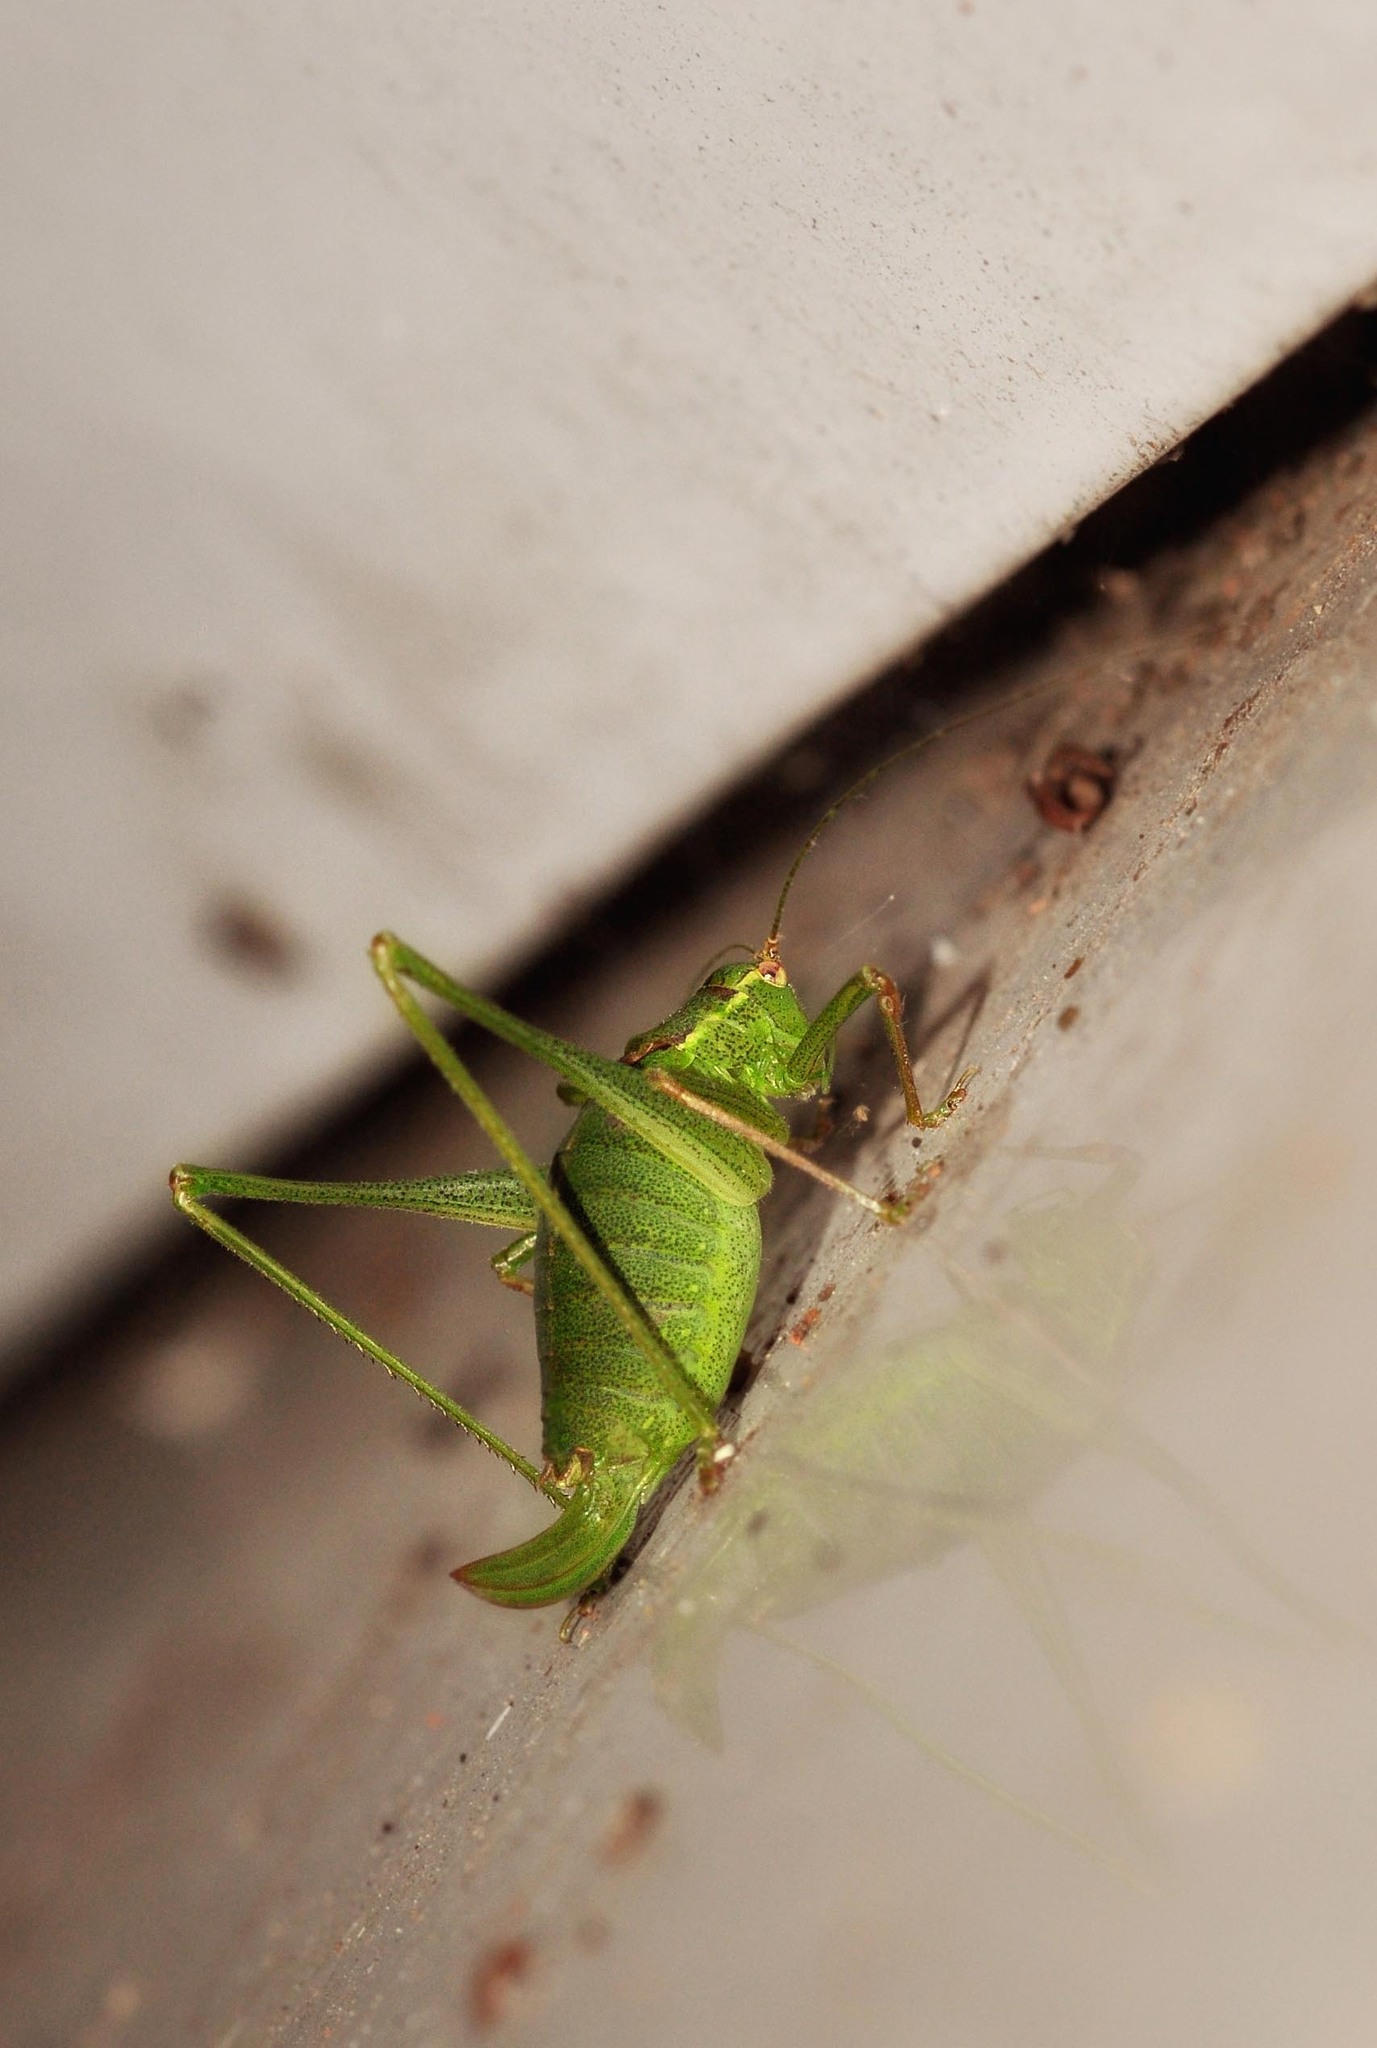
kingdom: Animalia
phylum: Arthropoda
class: Insecta
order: Orthoptera
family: Tettigoniidae
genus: Leptophyes
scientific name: Leptophyes punctatissima
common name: Speckled bush-cricket
